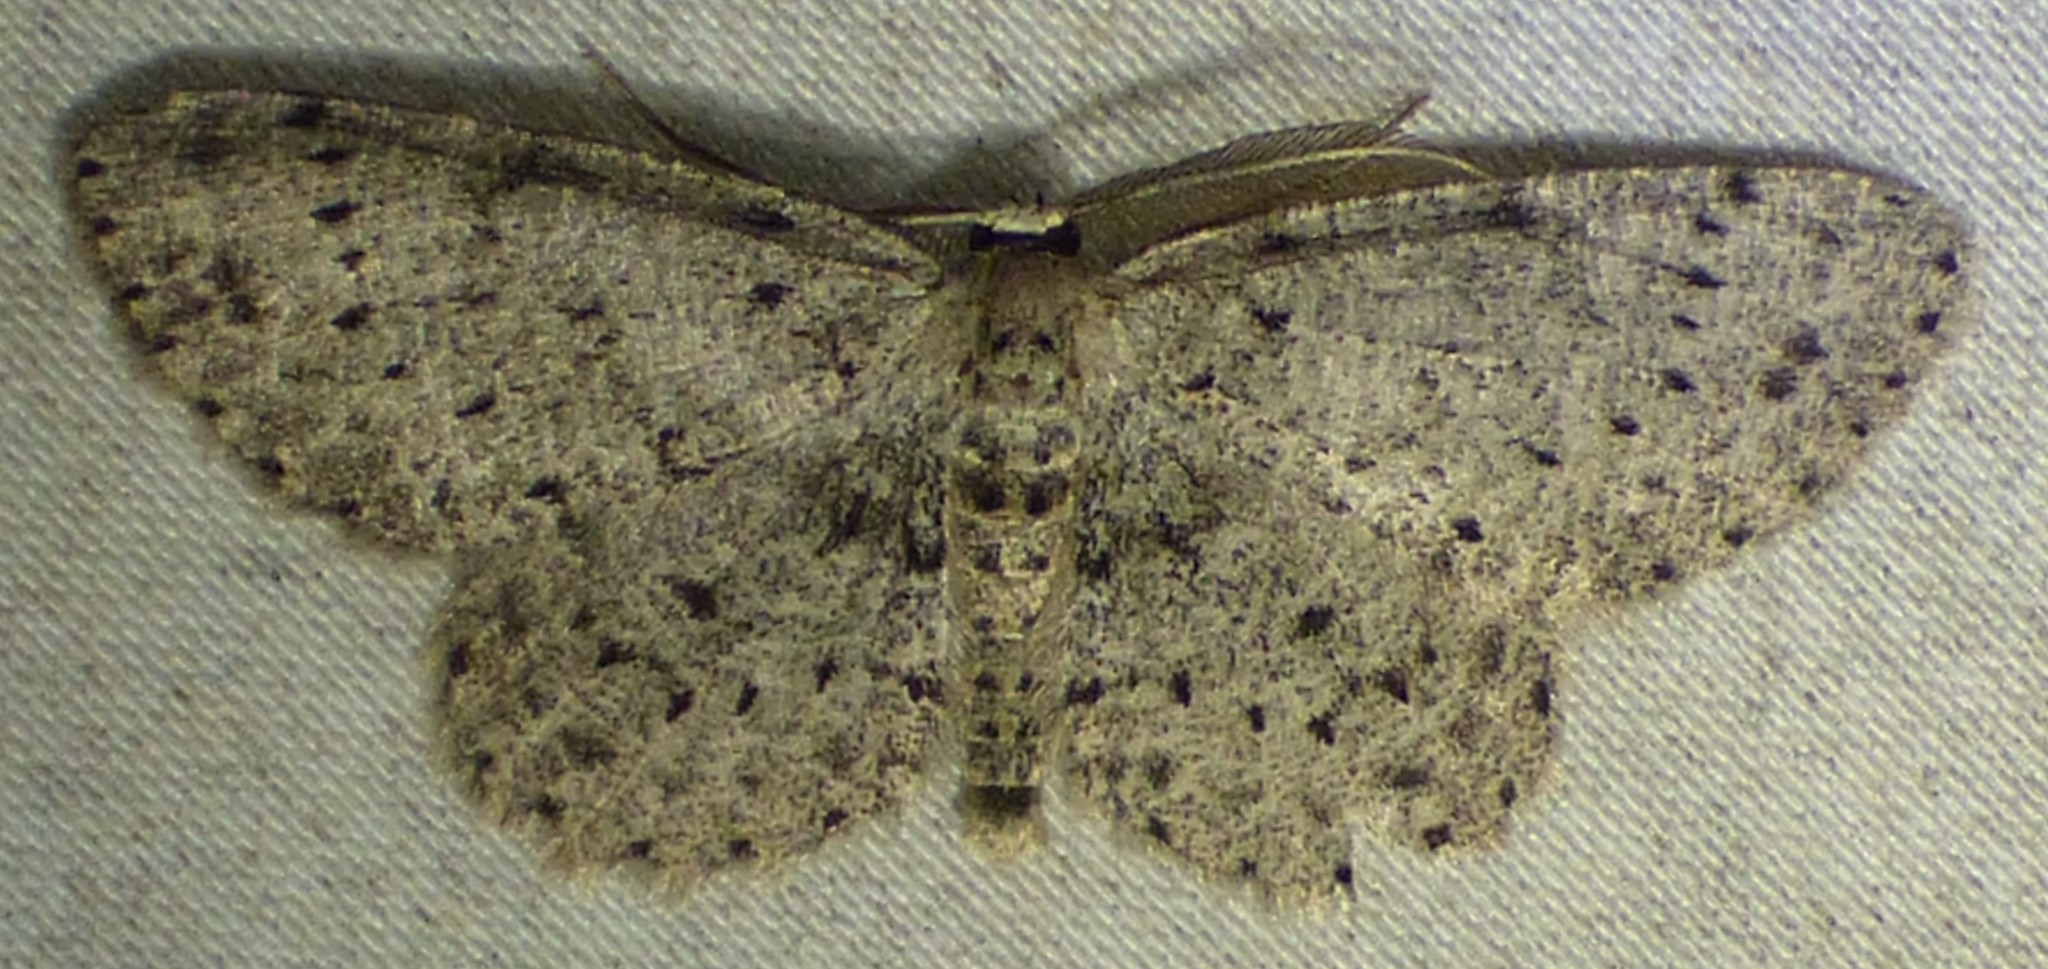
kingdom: Animalia
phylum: Arthropoda
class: Insecta
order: Lepidoptera
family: Geometridae
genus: Glena
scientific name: Glena cribrataria
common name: Dotted gray
